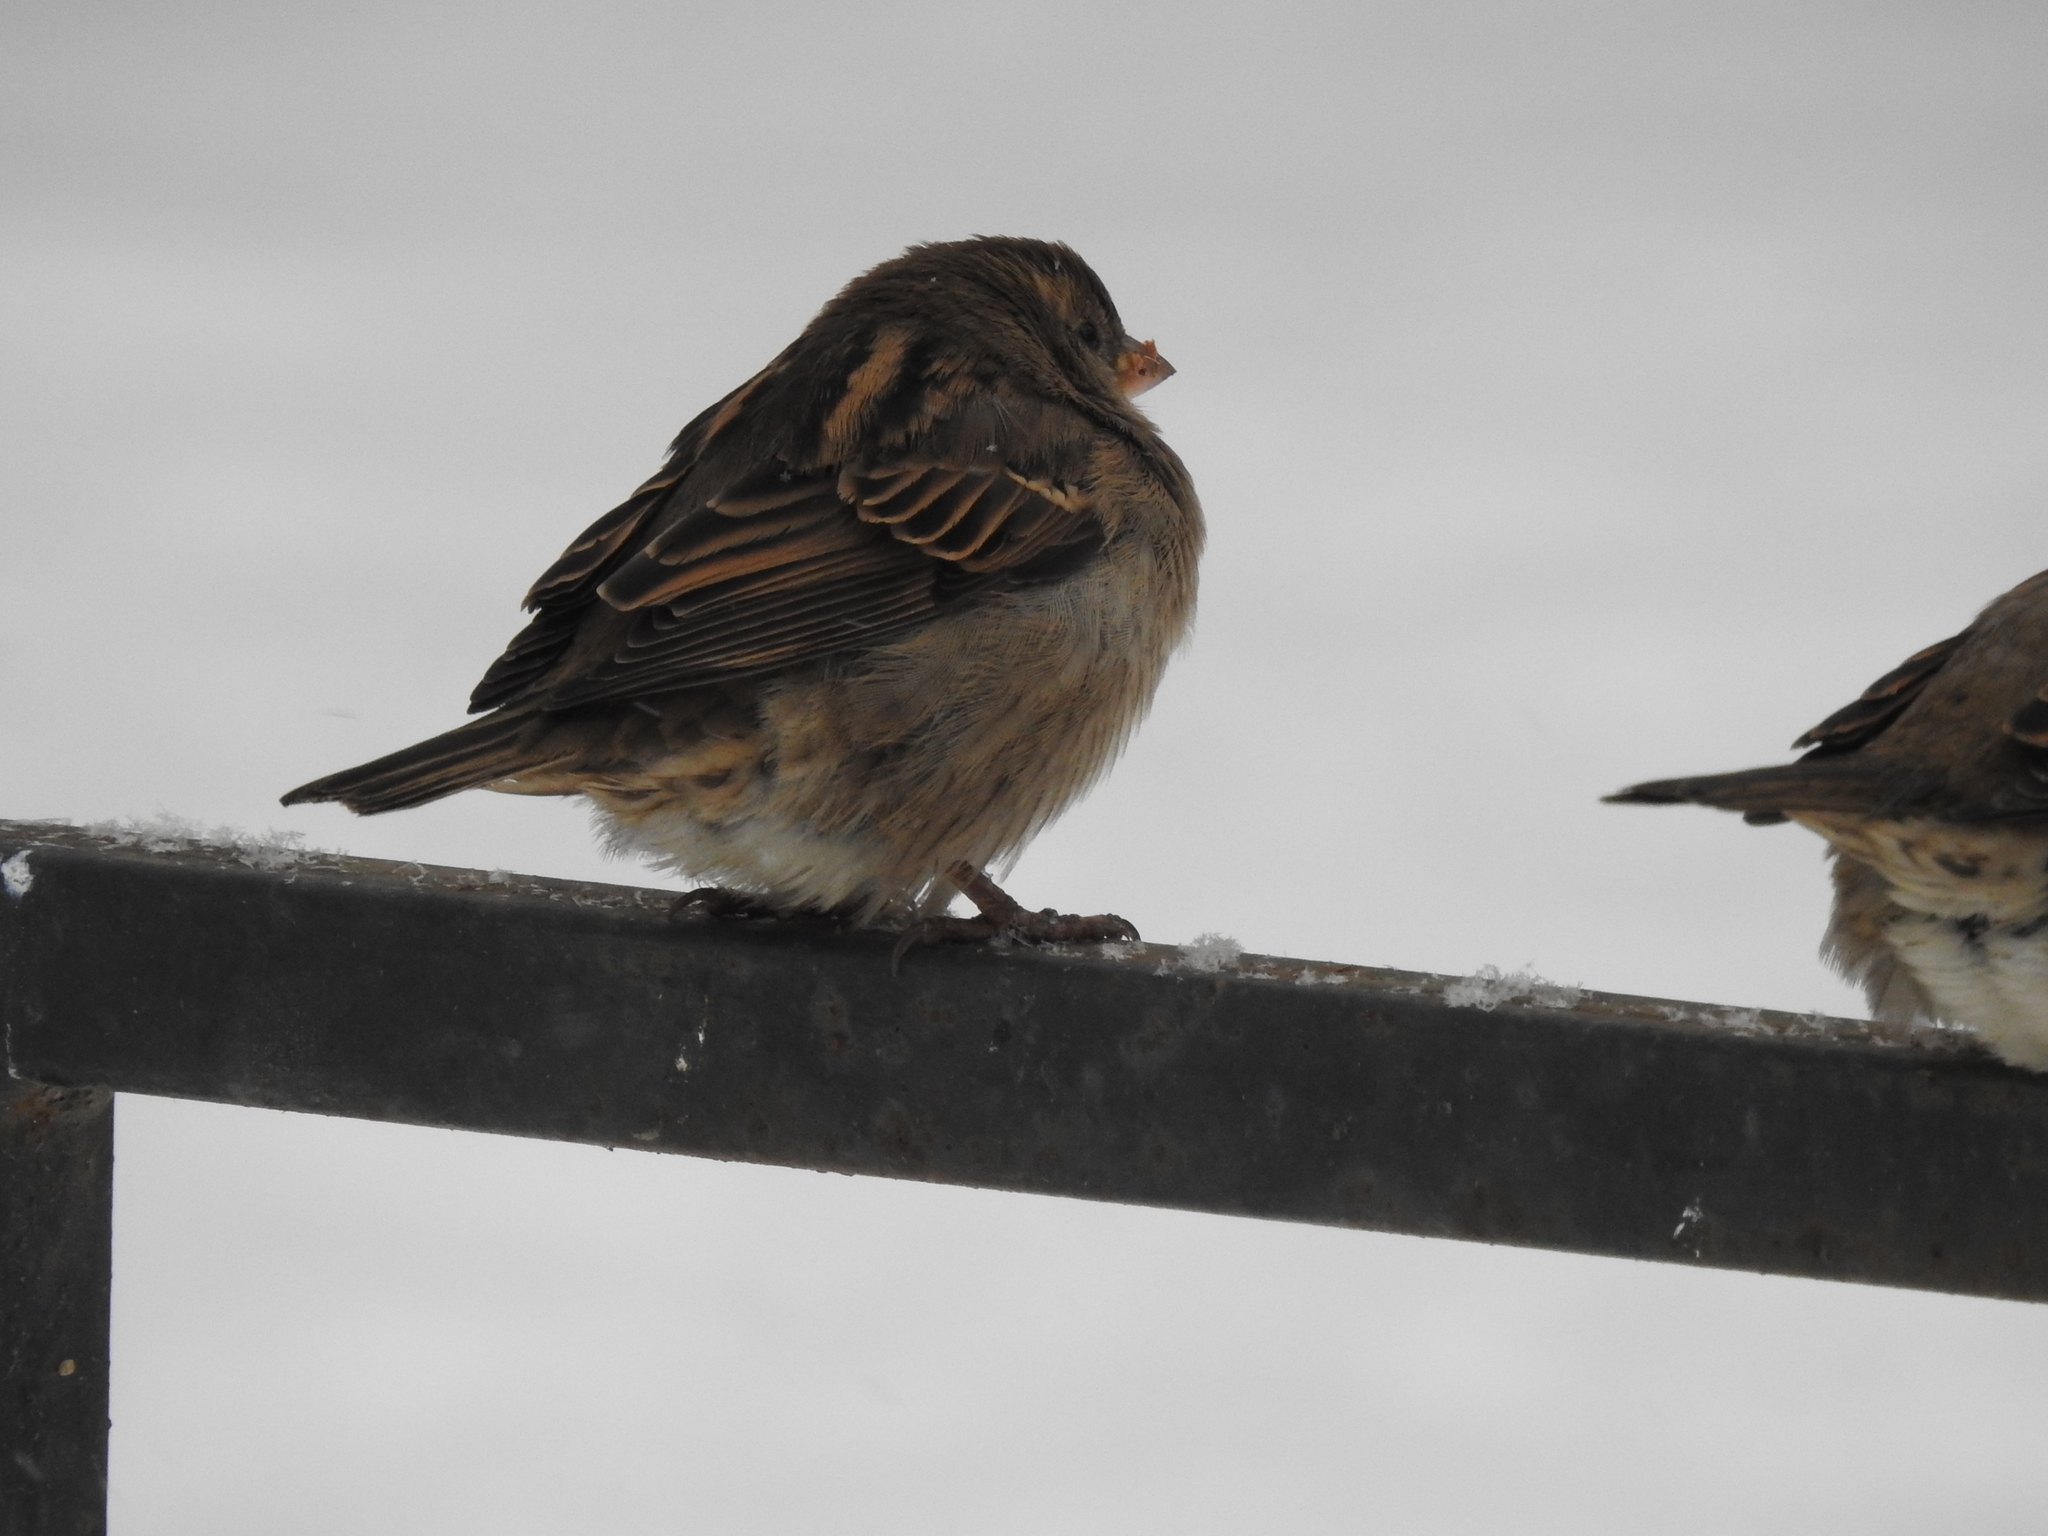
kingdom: Animalia
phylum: Chordata
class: Aves
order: Passeriformes
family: Passeridae
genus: Passer
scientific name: Passer domesticus
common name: House sparrow
